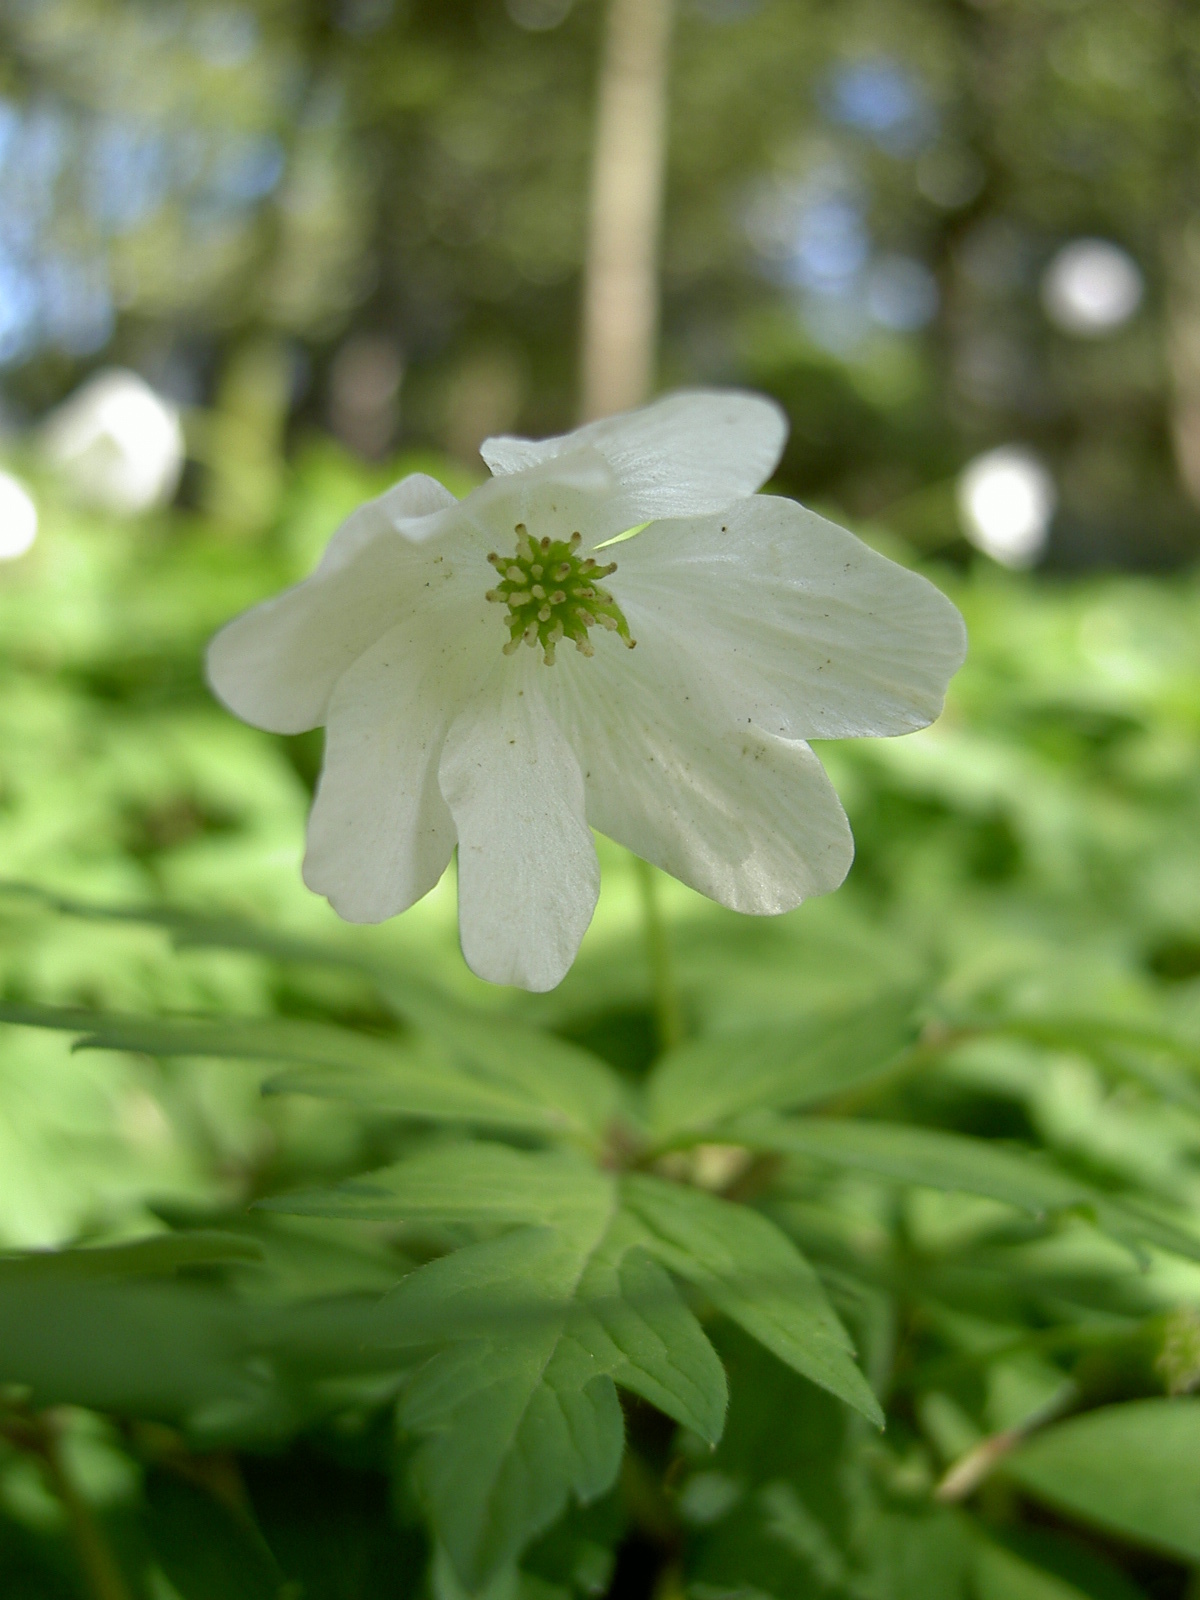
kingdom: Plantae
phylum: Tracheophyta
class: Magnoliopsida
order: Ranunculales
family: Ranunculaceae
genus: Anemone
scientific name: Anemone nemorosa
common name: Wood anemone
